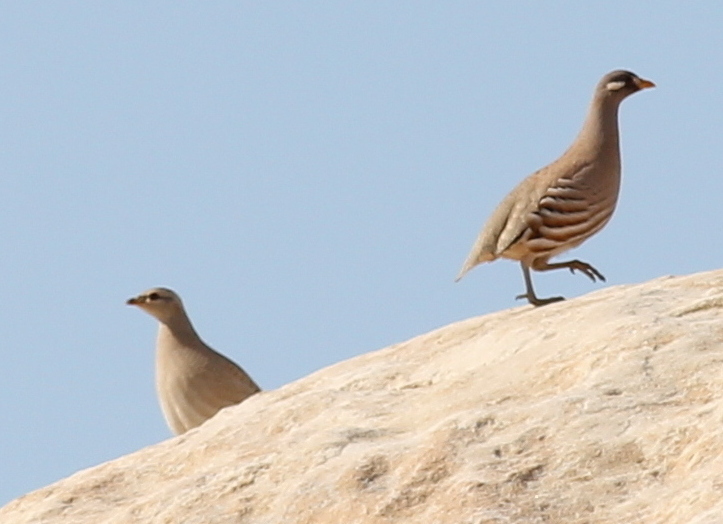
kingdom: Animalia
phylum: Chordata
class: Aves
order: Galliformes
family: Phasianidae
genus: Ammoperdix
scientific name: Ammoperdix heyi
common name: Sand partridge
